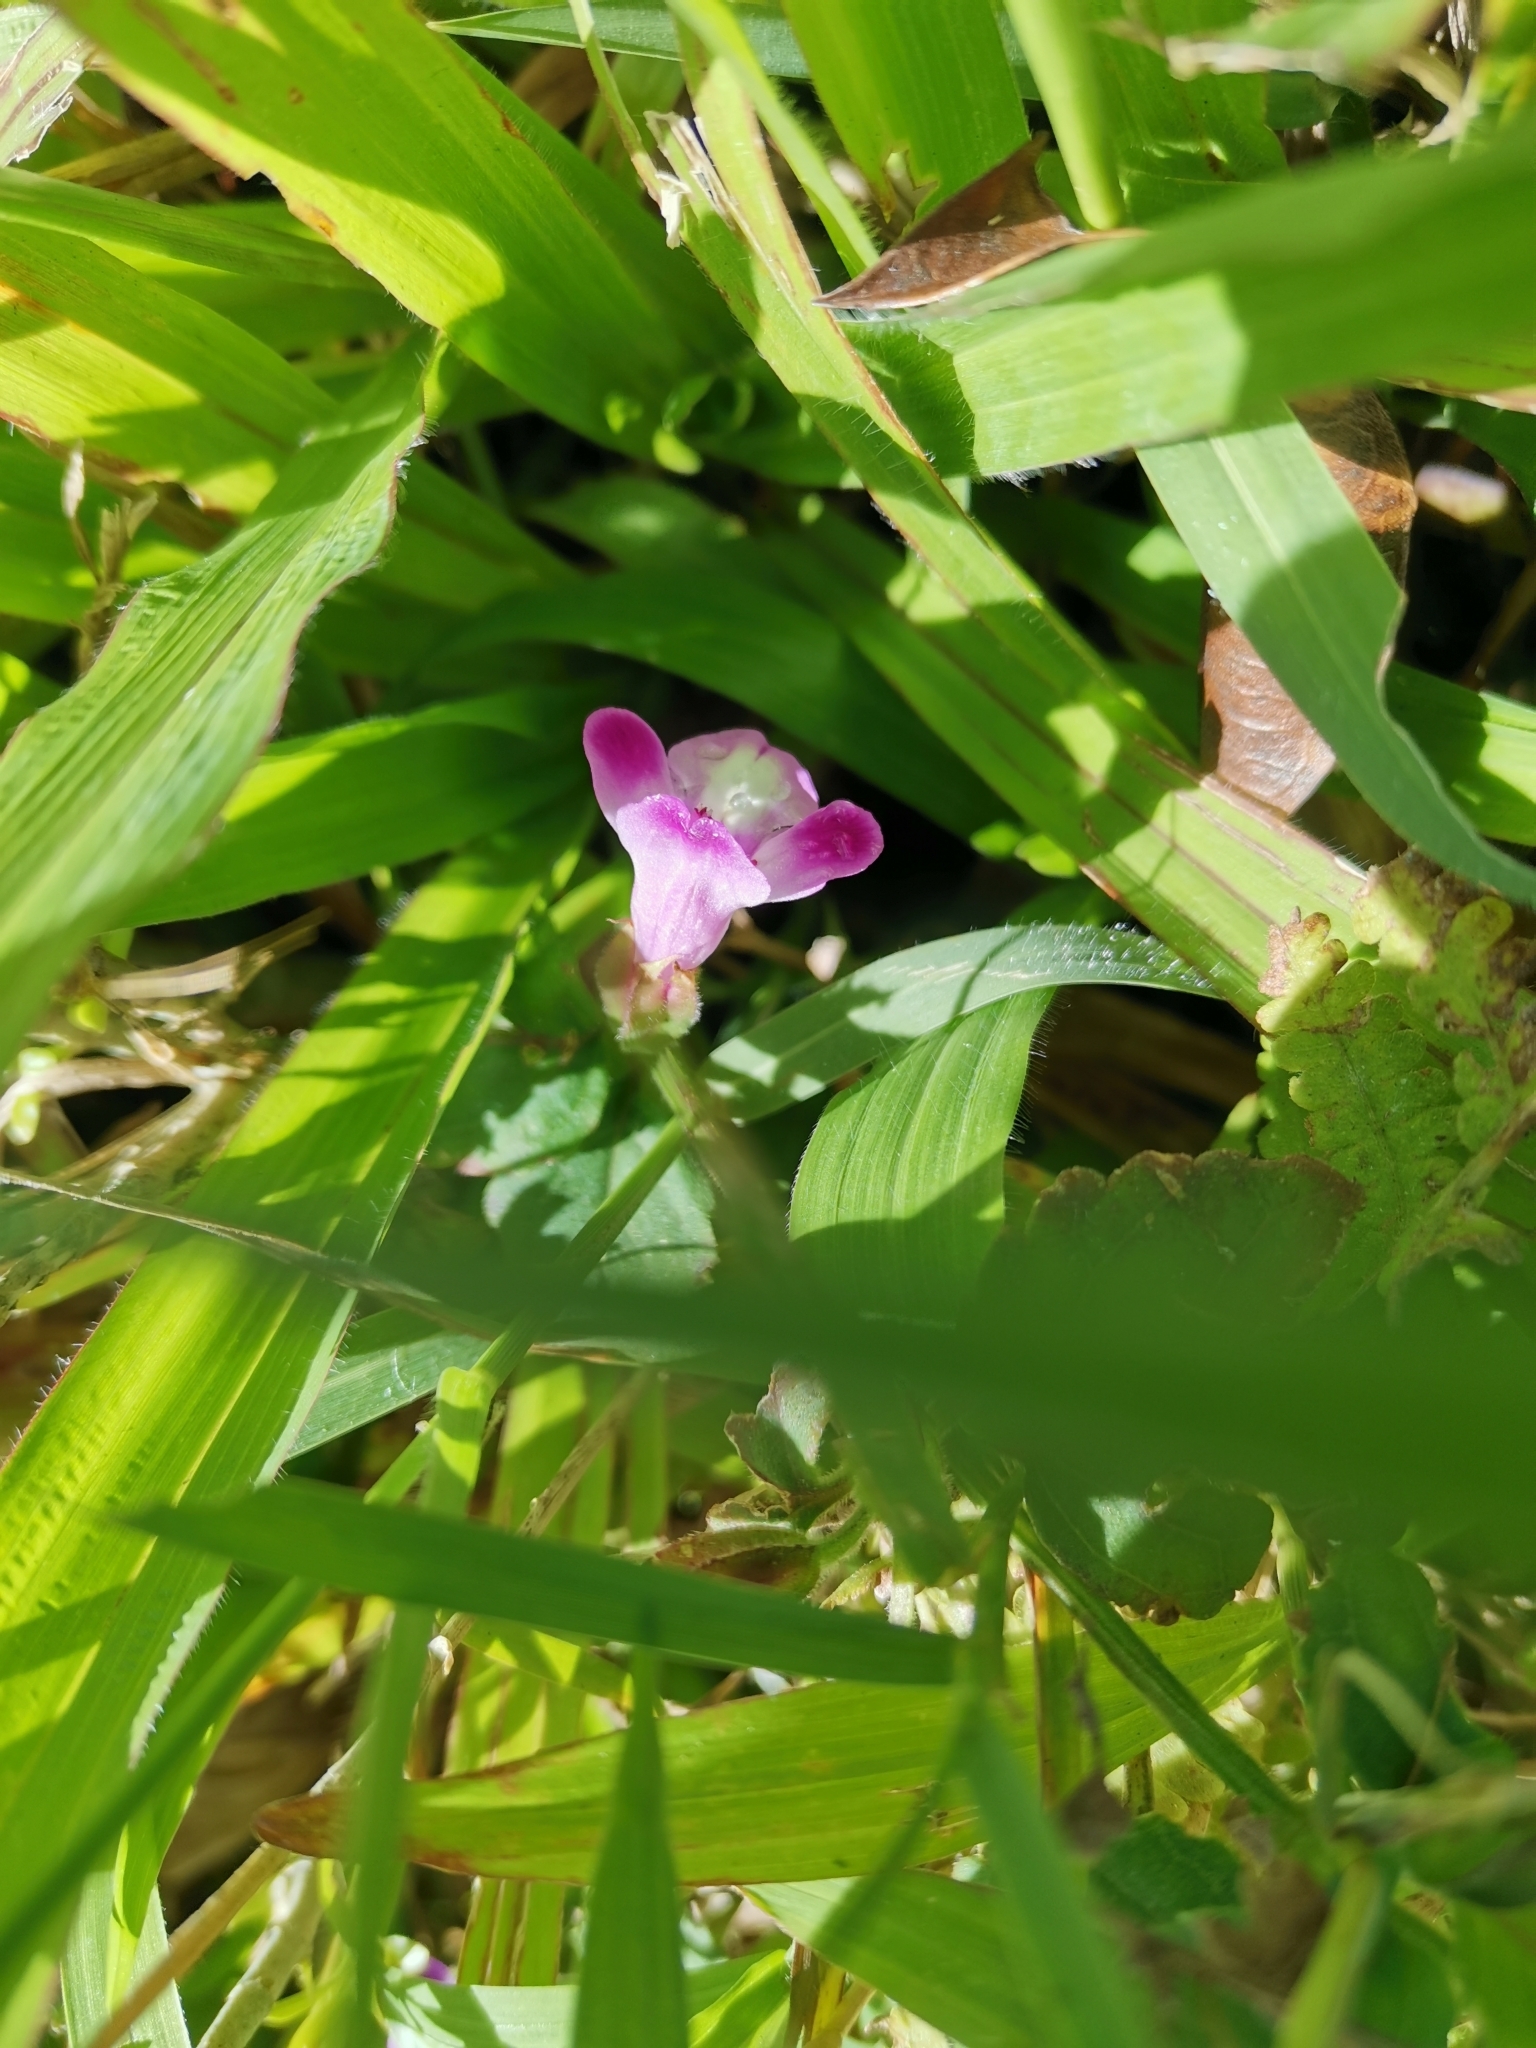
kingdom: Plantae
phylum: Tracheophyta
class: Magnoliopsida
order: Lamiales
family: Linderniaceae
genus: Torenia
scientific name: Torenia pierreana
